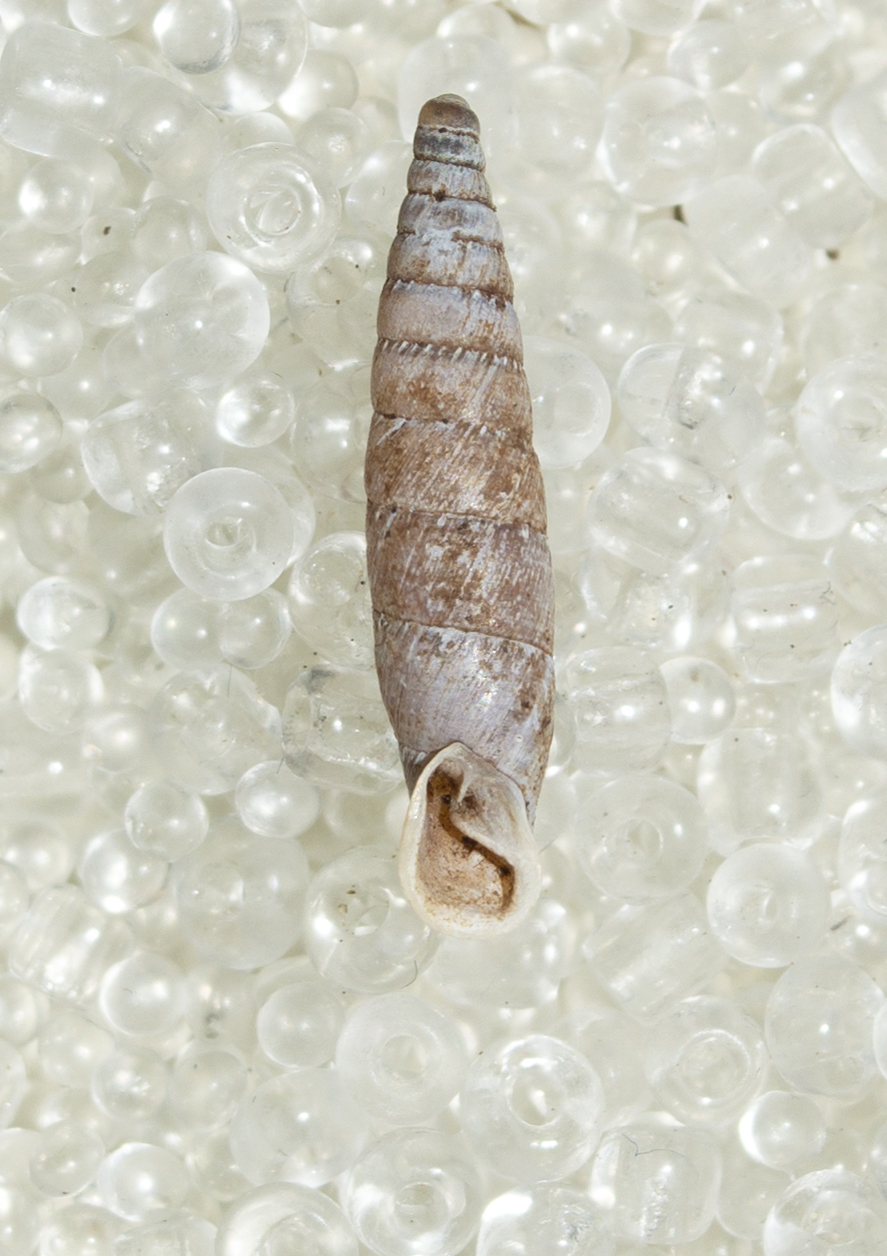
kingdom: Animalia
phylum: Mollusca
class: Gastropoda
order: Stylommatophora
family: Clausiliidae
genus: Stigmatica
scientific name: Stigmatica stigmatica
